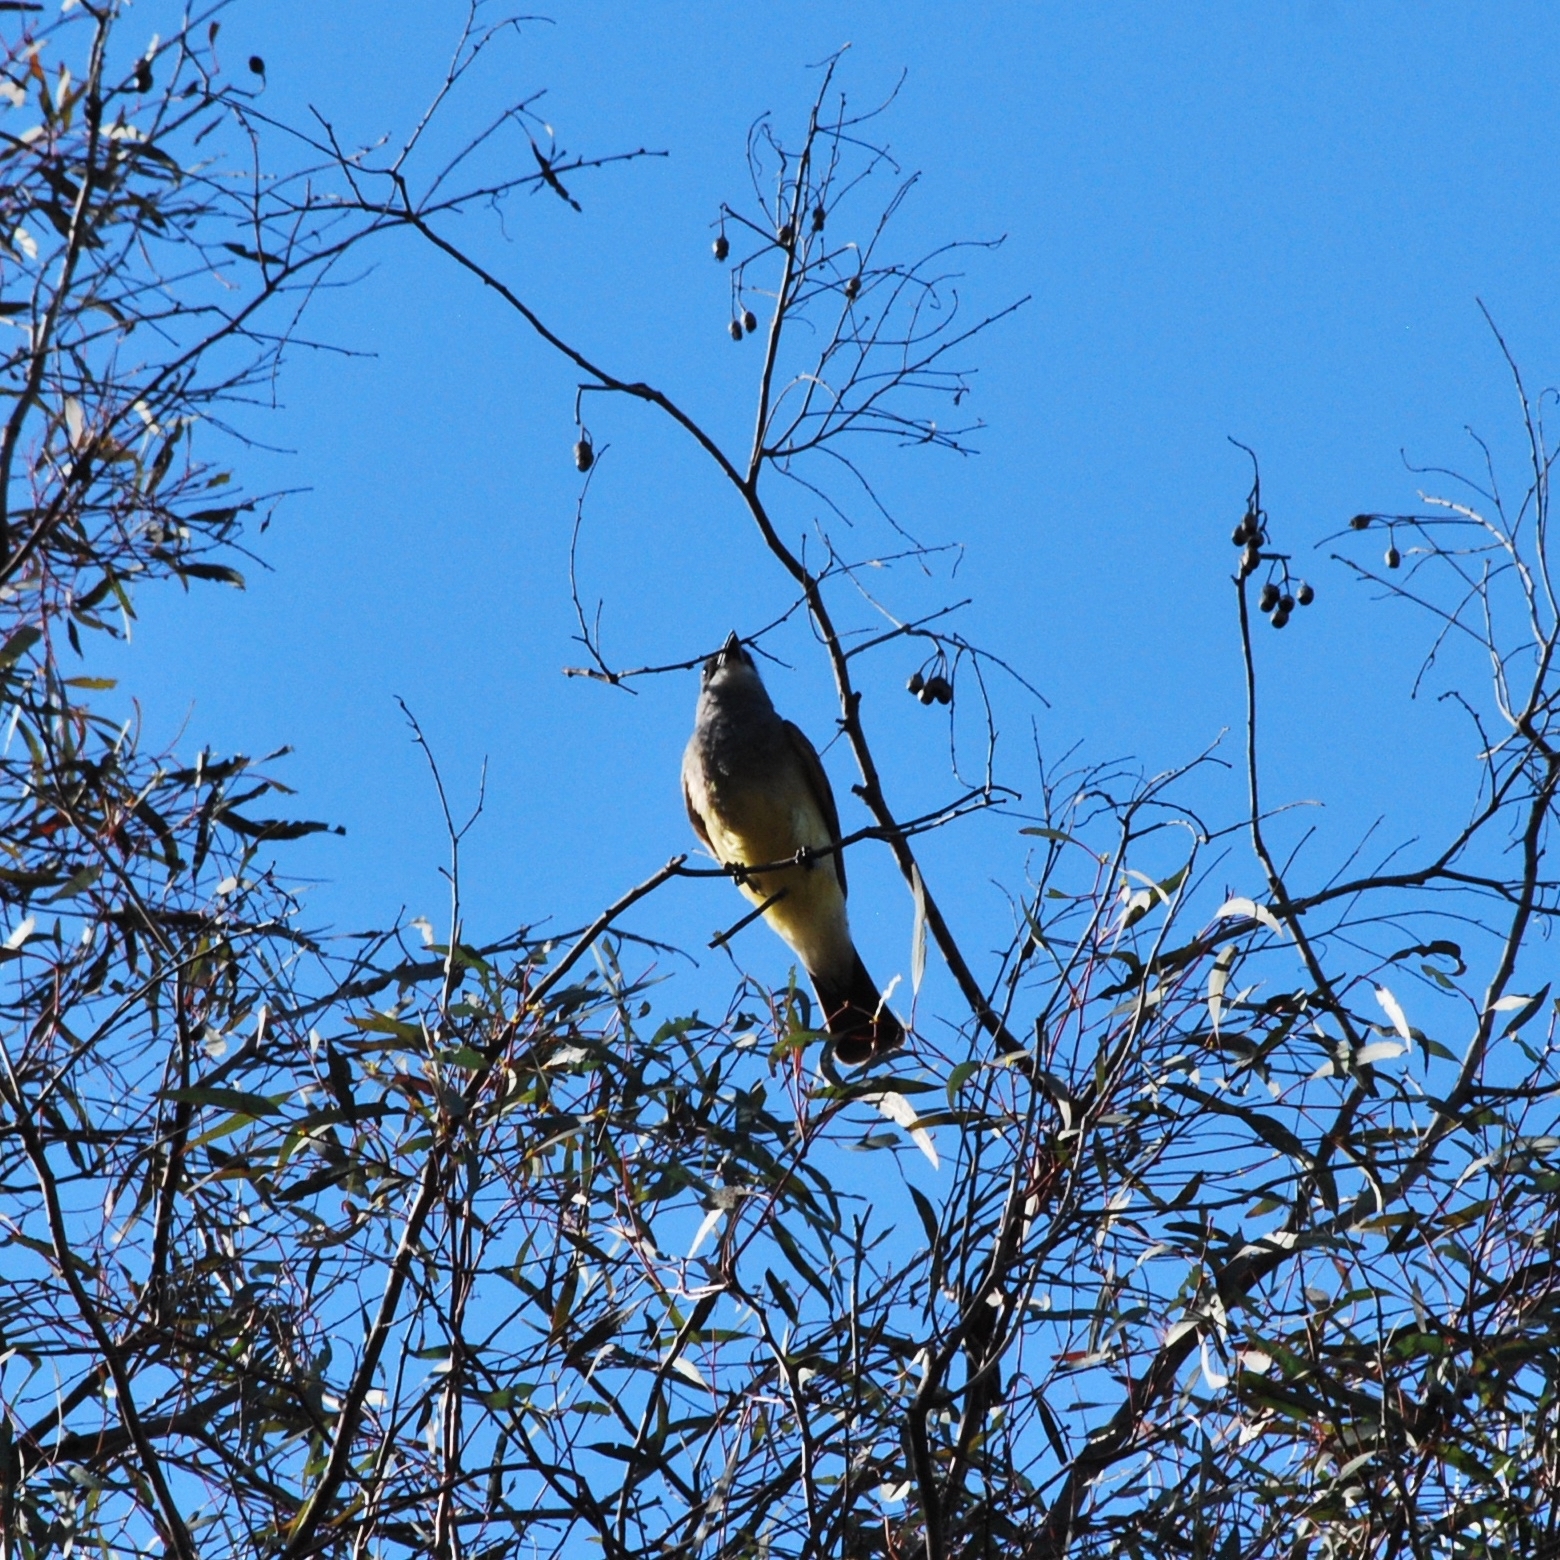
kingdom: Animalia
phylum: Chordata
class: Aves
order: Passeriformes
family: Tyrannidae
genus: Tyrannus
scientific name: Tyrannus vociferans
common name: Cassin's kingbird
